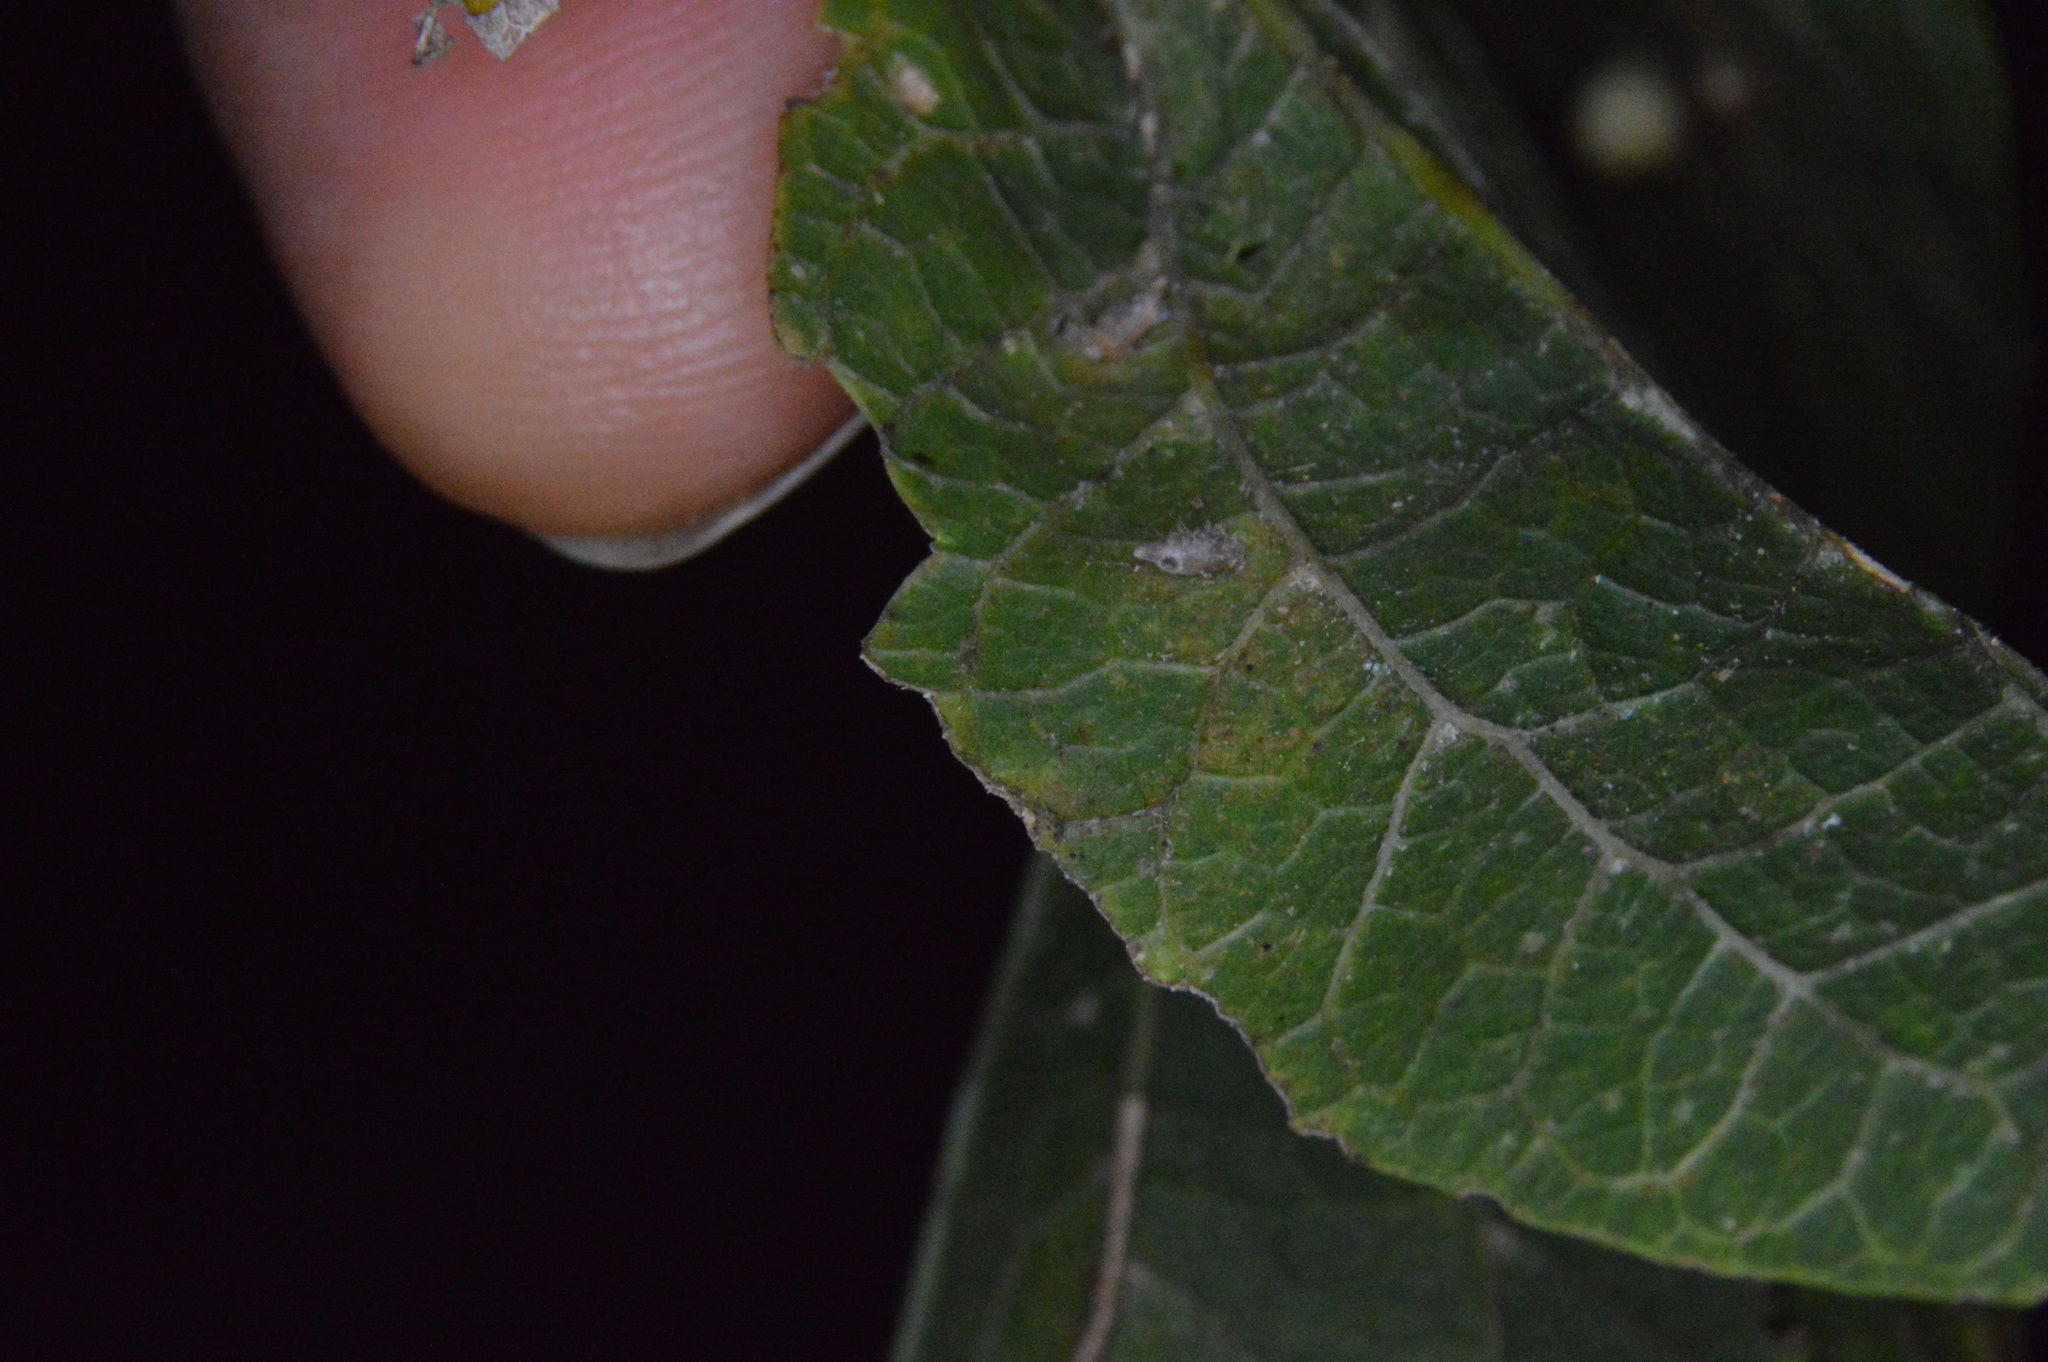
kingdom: Animalia
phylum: Arthropoda
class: Insecta
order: Diptera
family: Cecidomyiidae
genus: Celticecis
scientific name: Celticecis supina
